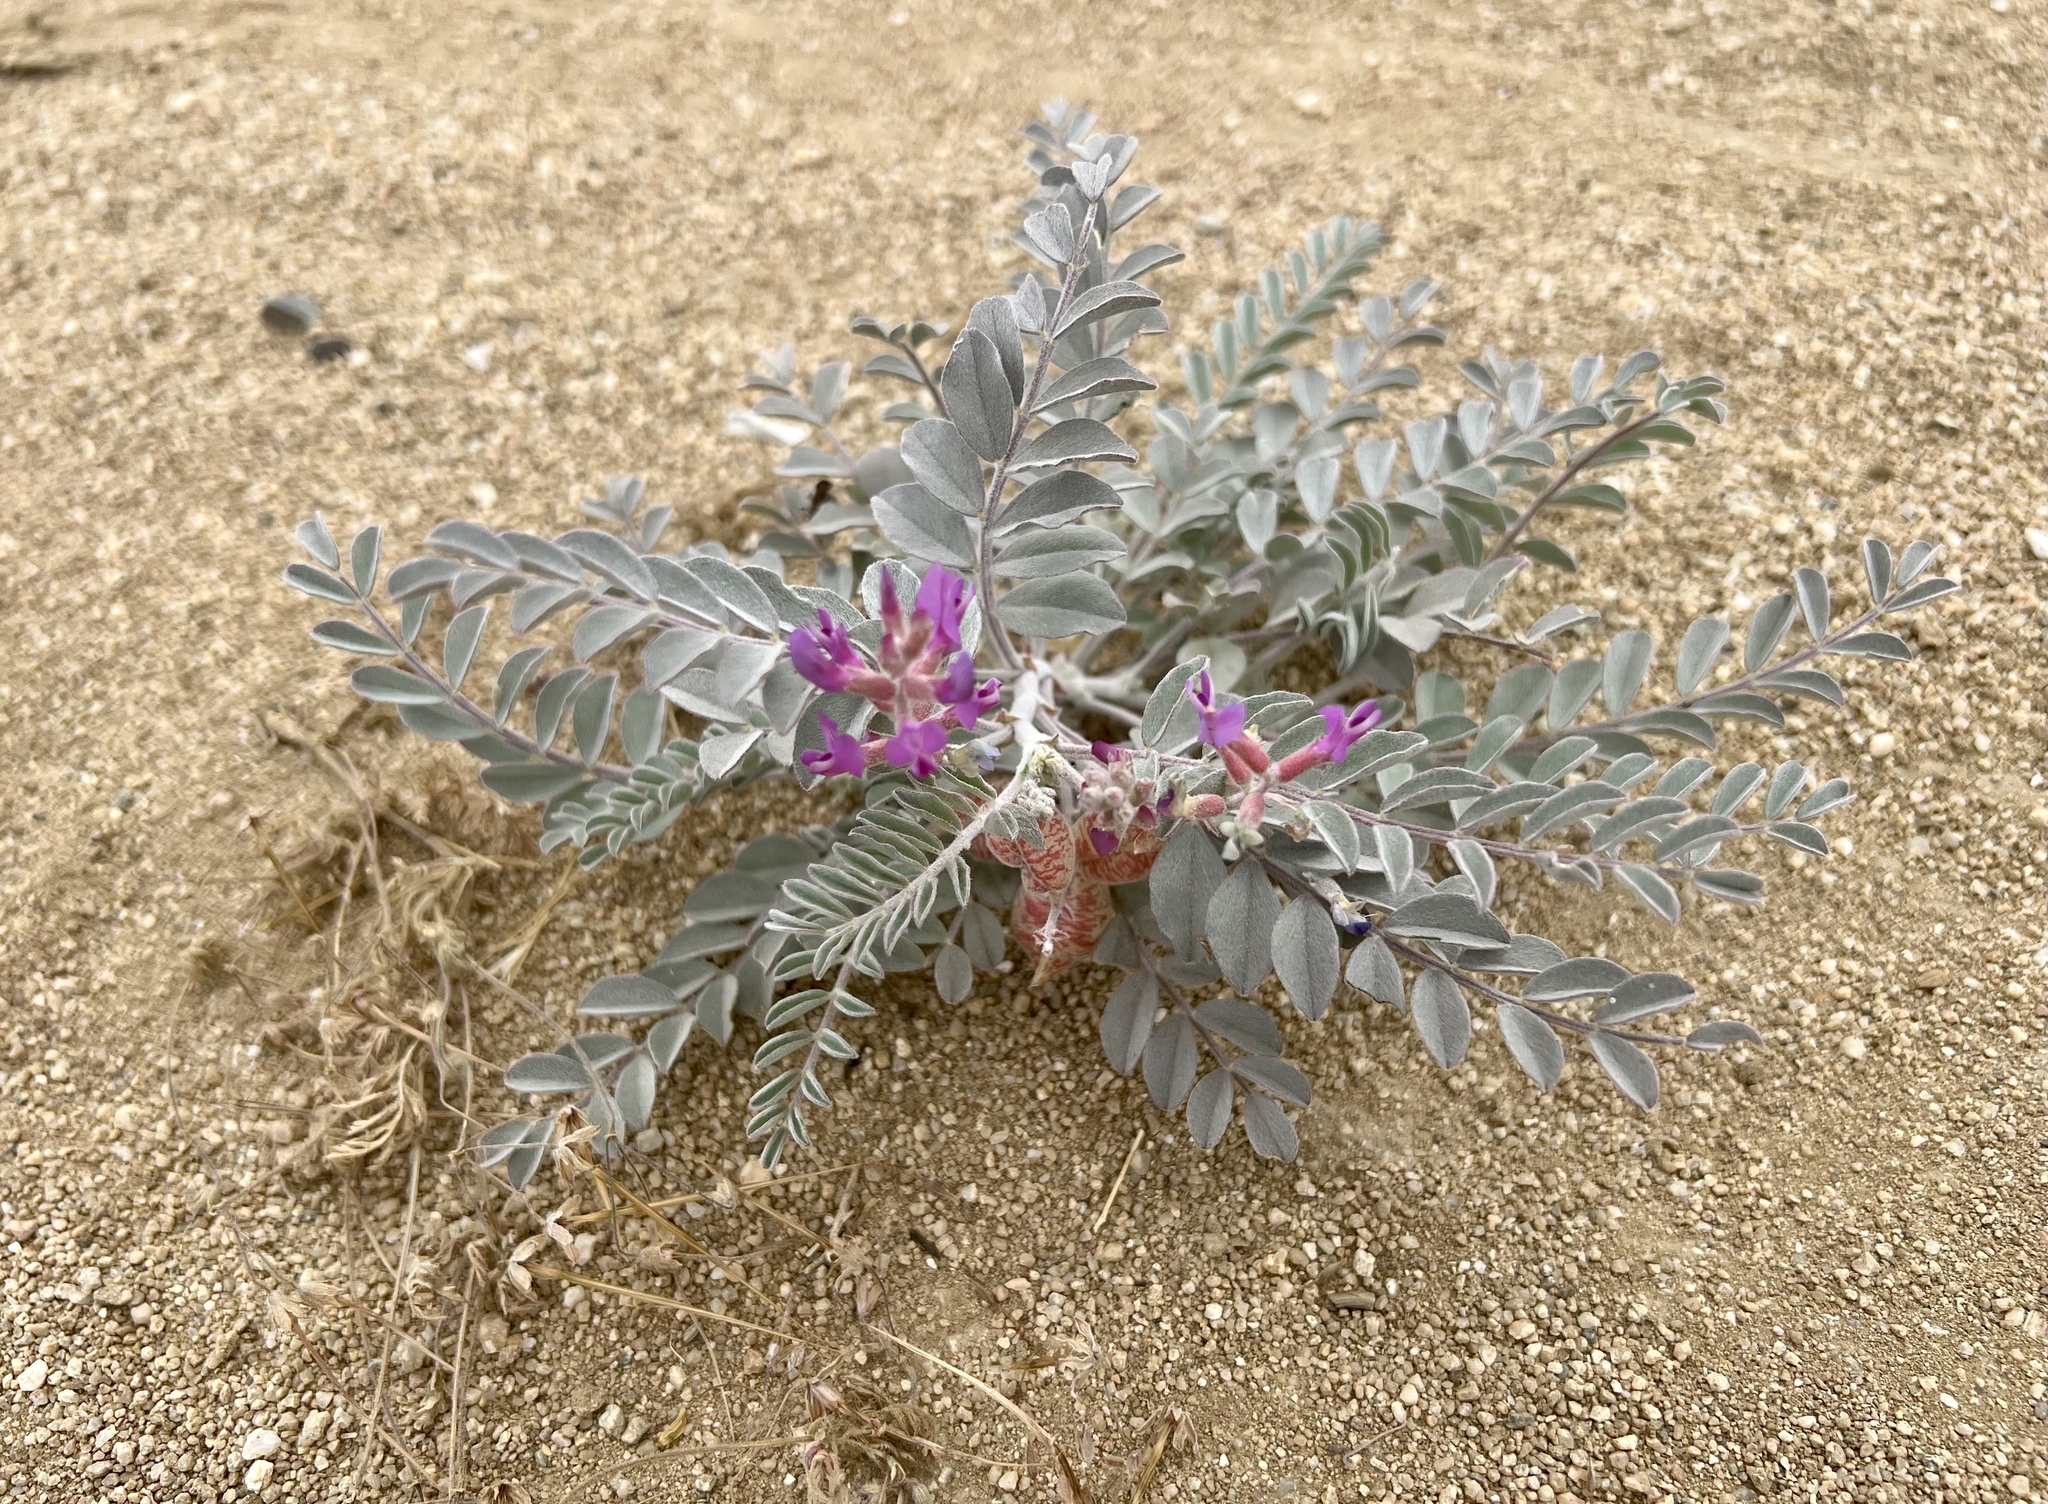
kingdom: Plantae
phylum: Tracheophyta
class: Magnoliopsida
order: Fabales
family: Fabaceae
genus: Astragalus
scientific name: Astragalus lentiginosus
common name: Freckled milkvetch
